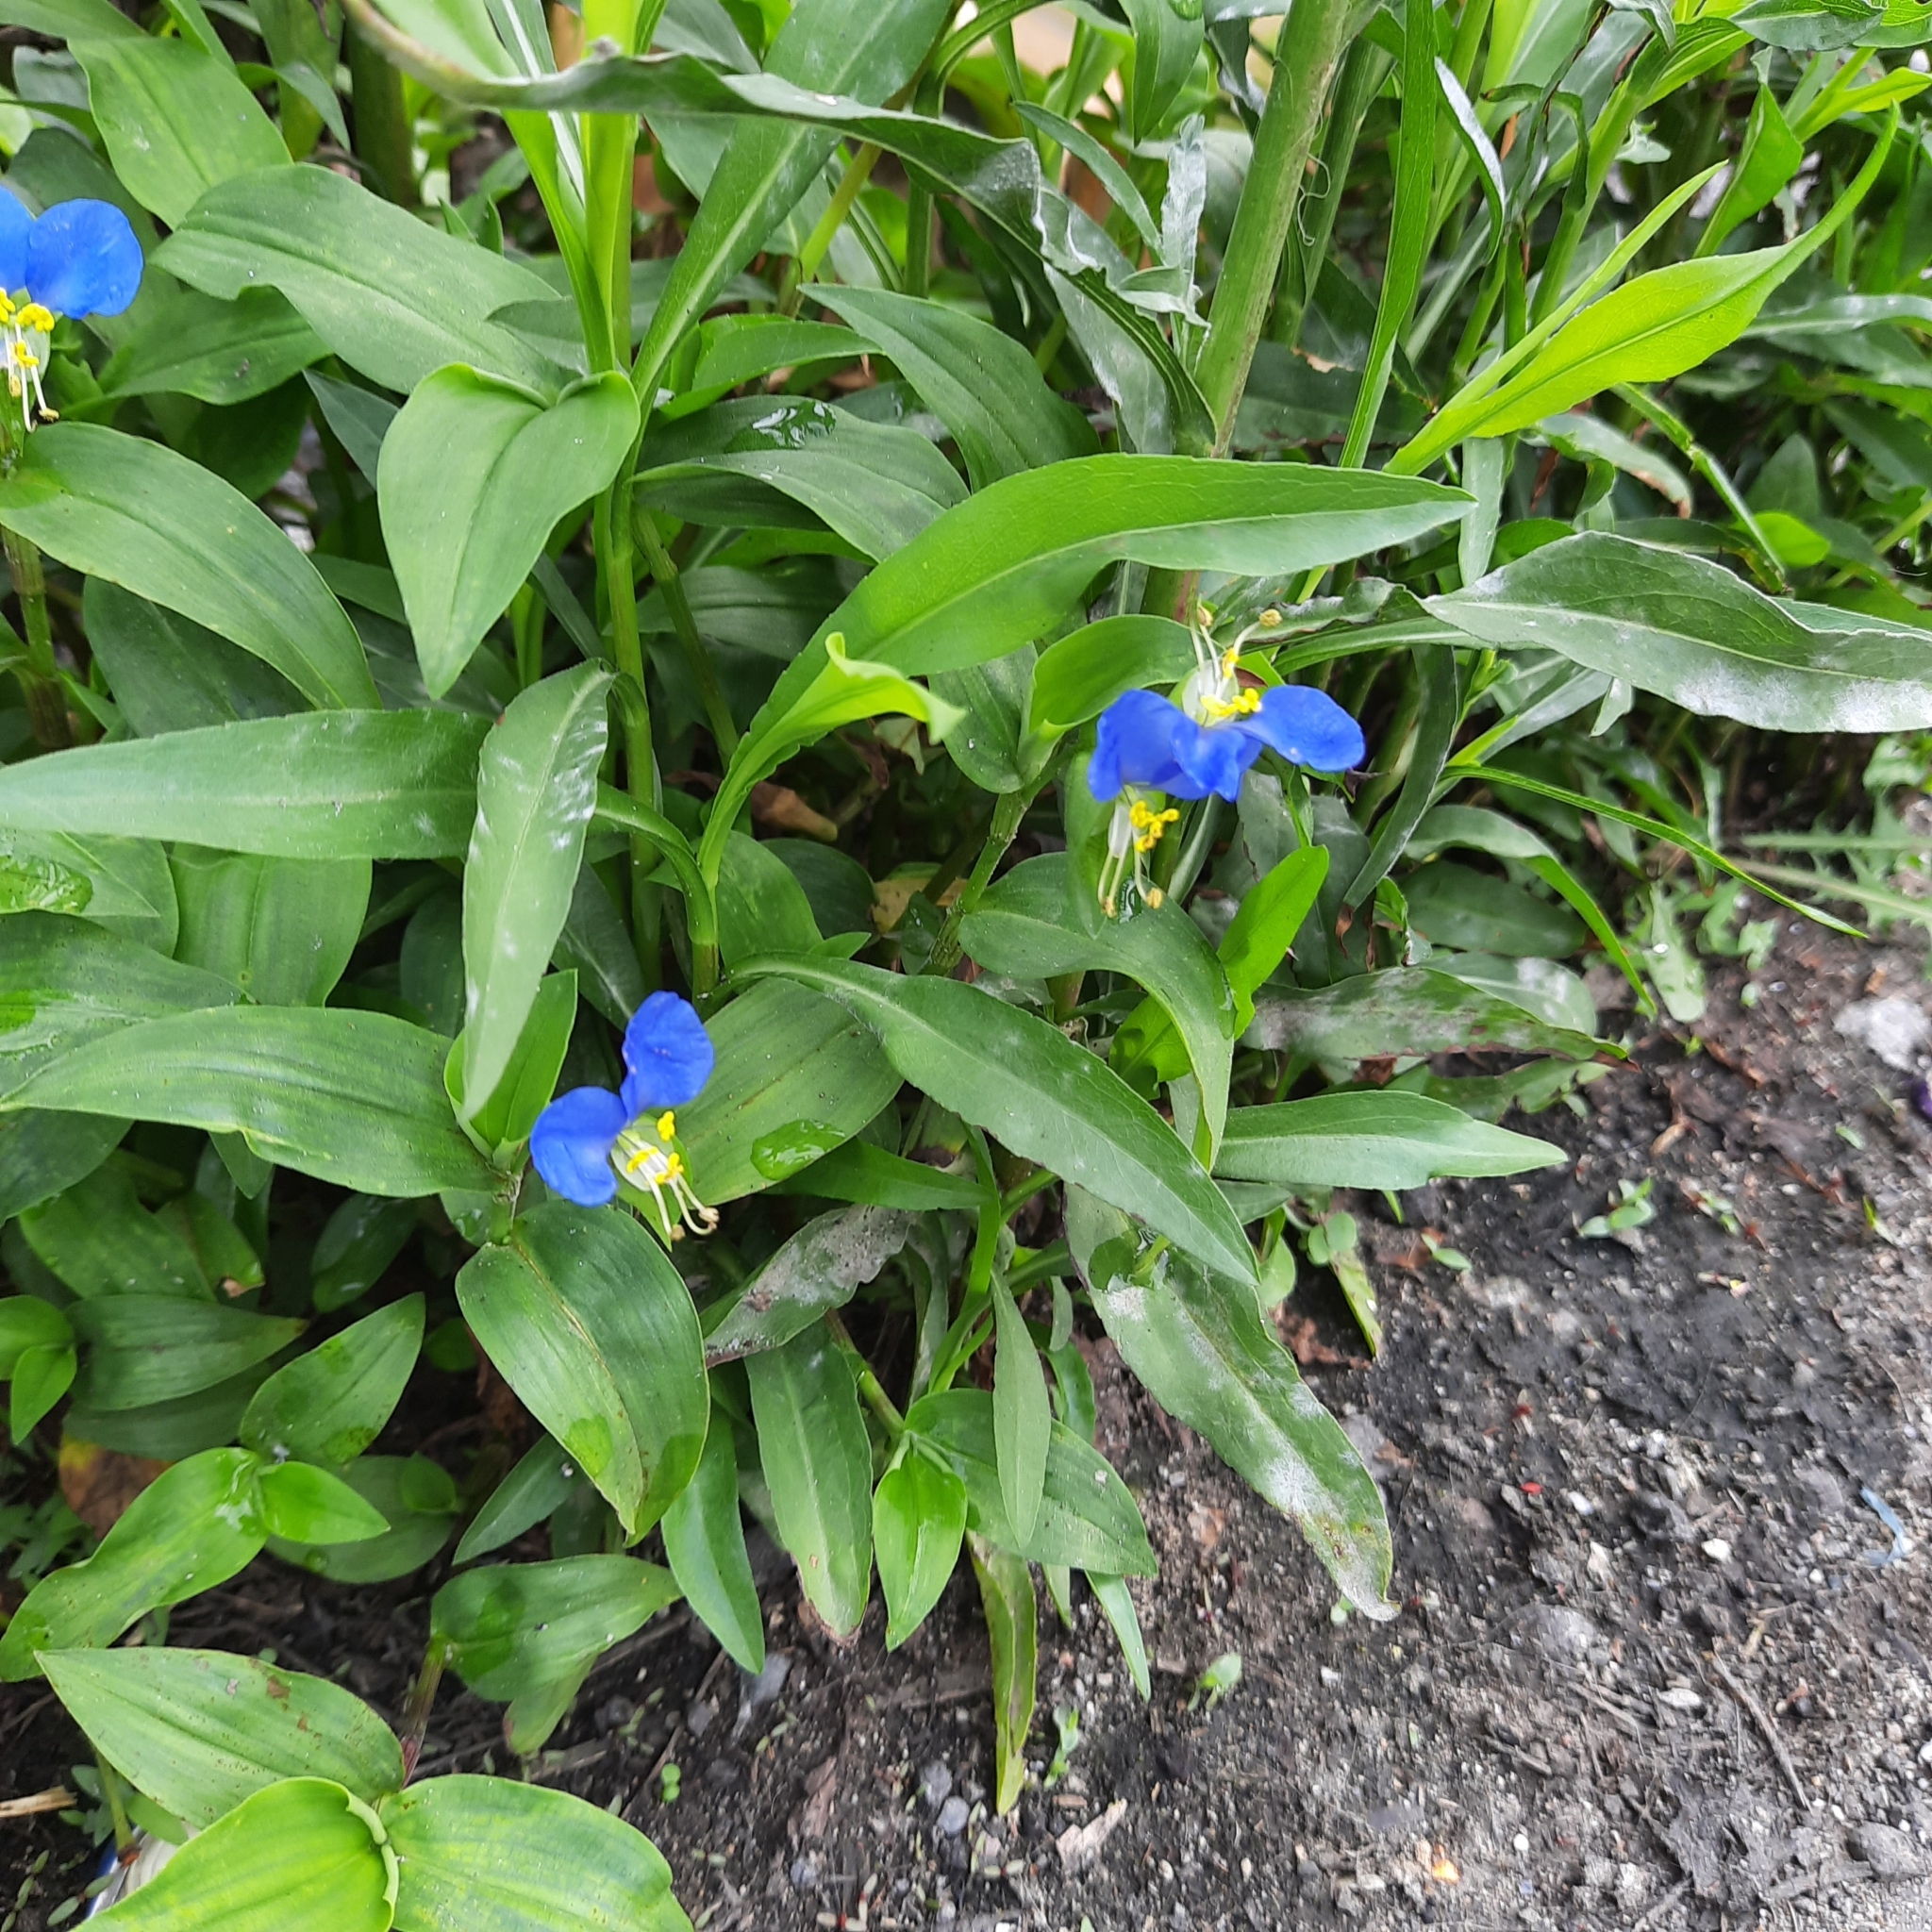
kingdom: Plantae
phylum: Tracheophyta
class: Liliopsida
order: Commelinales
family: Commelinaceae
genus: Commelina
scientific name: Commelina communis
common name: Asiatic dayflower
